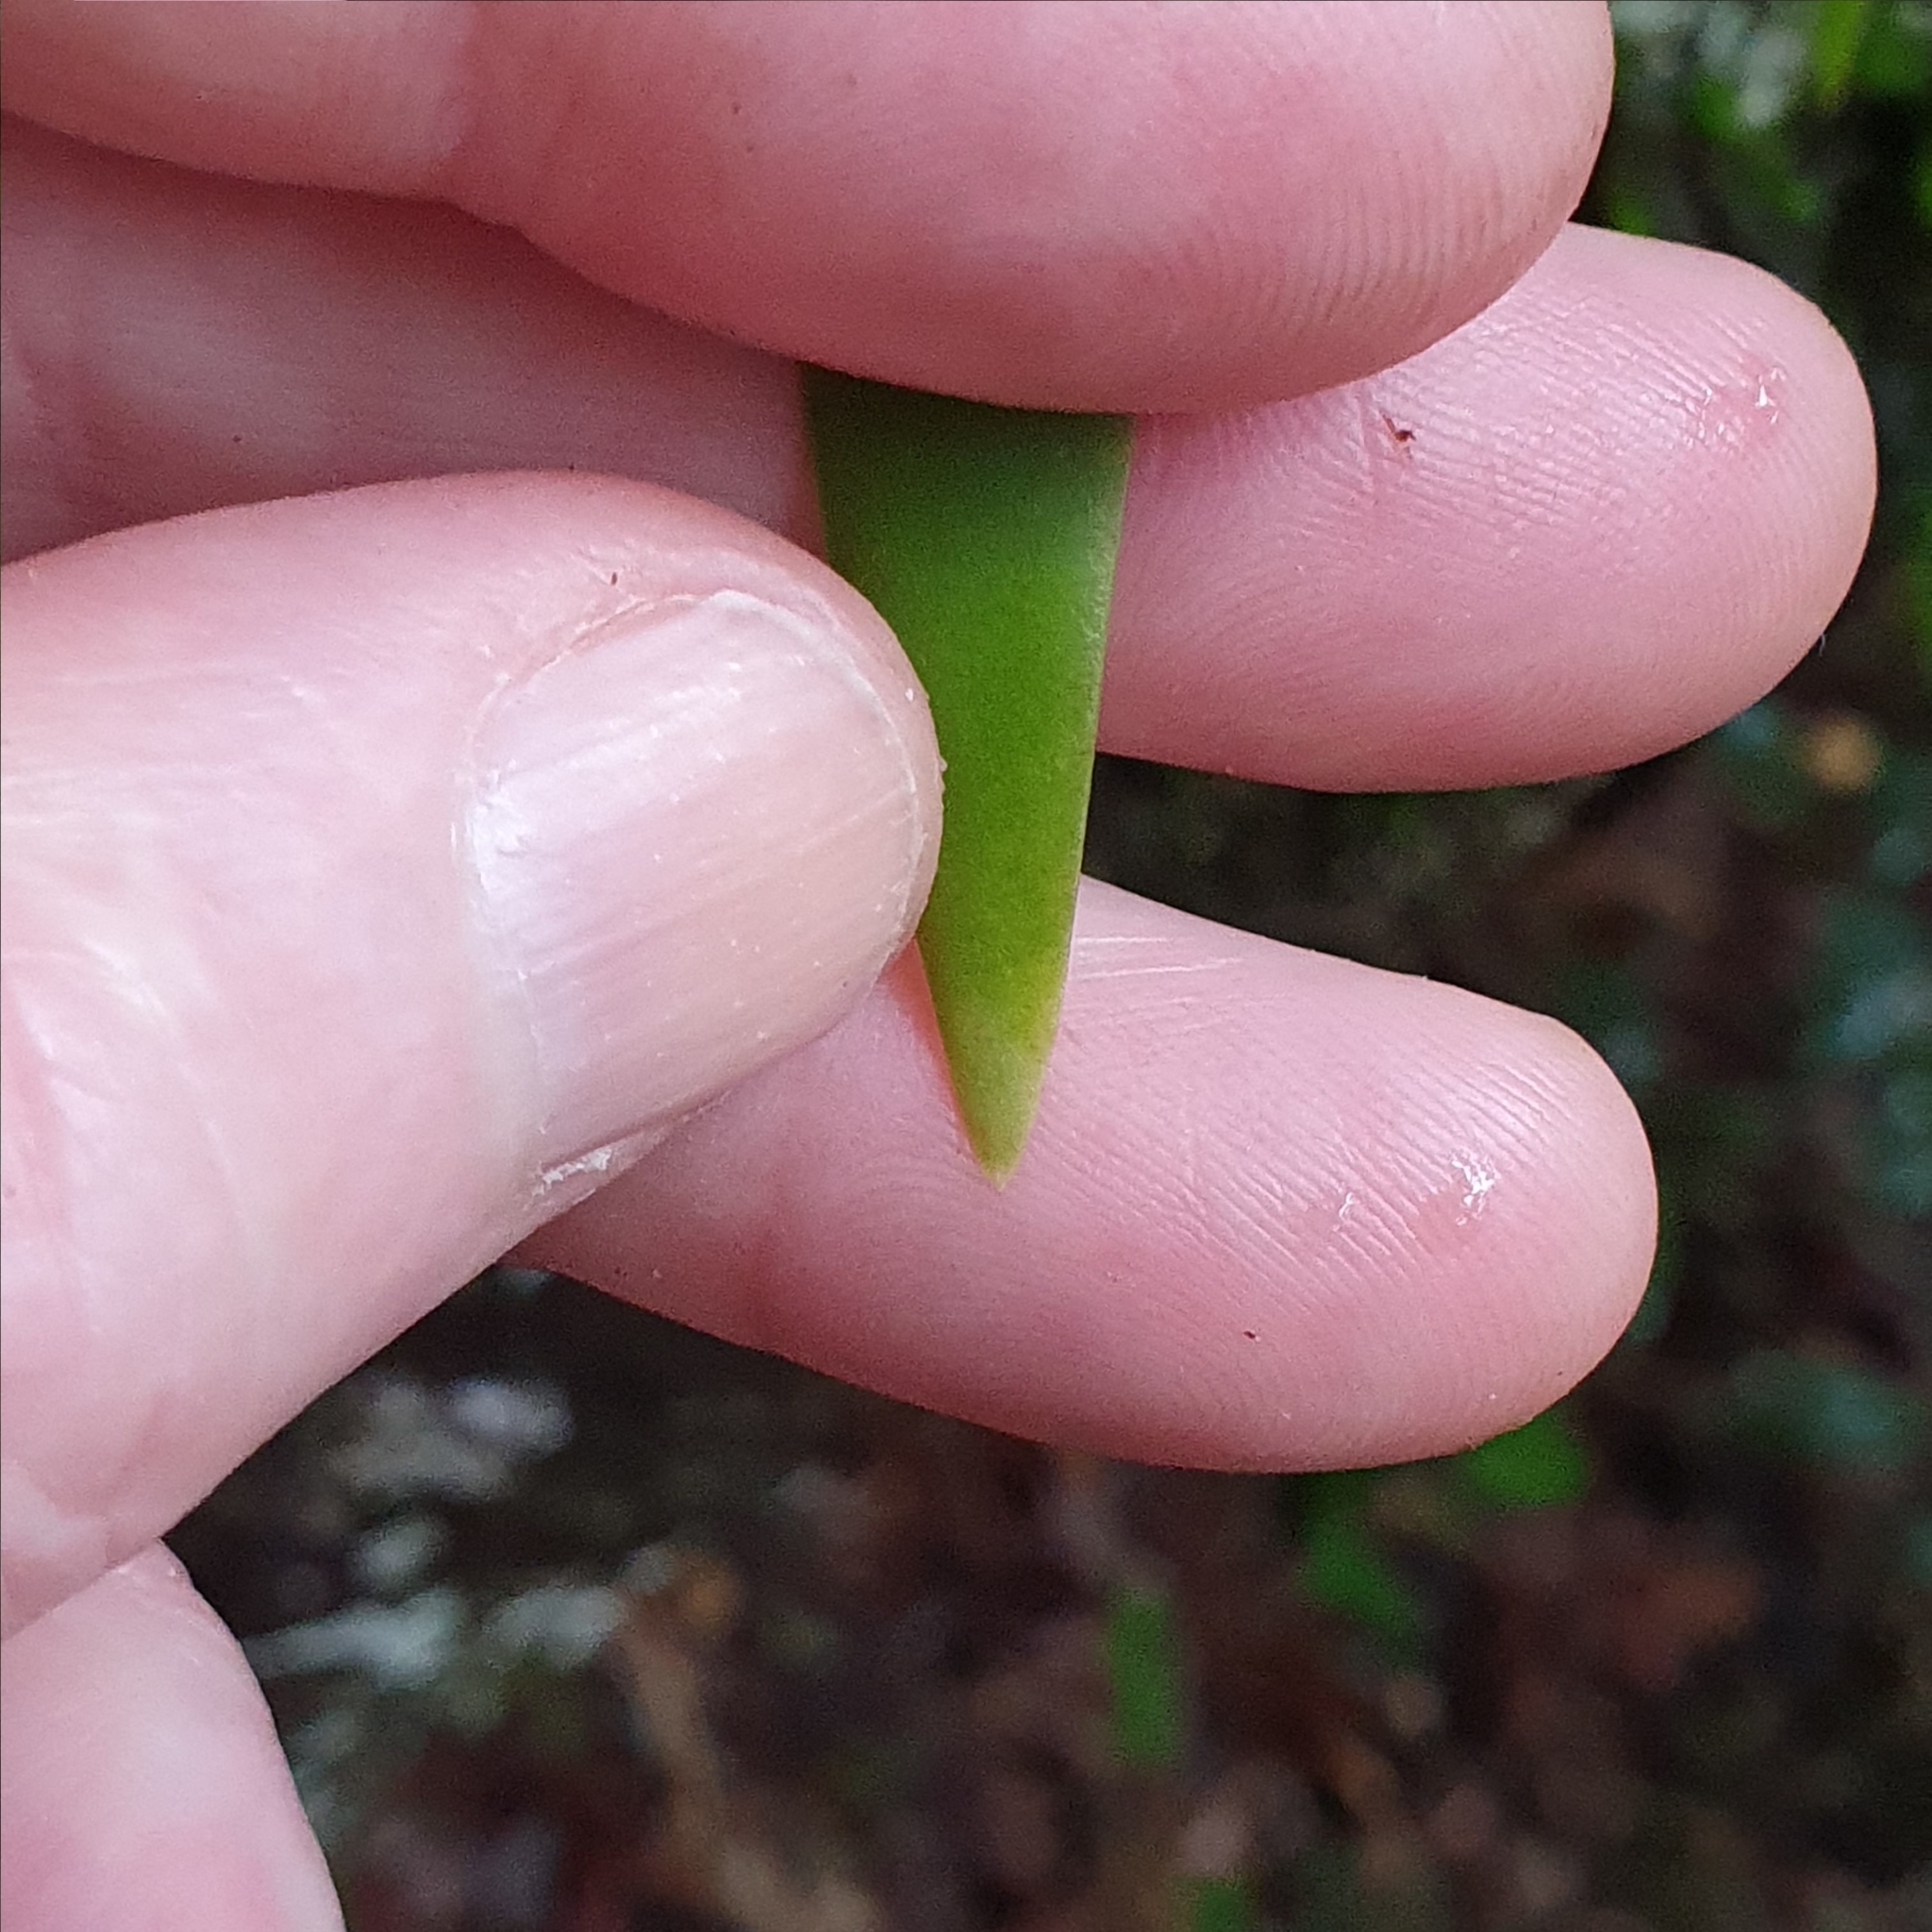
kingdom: Plantae
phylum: Tracheophyta
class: Liliopsida
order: Asparagales
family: Orchidaceae
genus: Oberonia
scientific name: Oberonia titania
